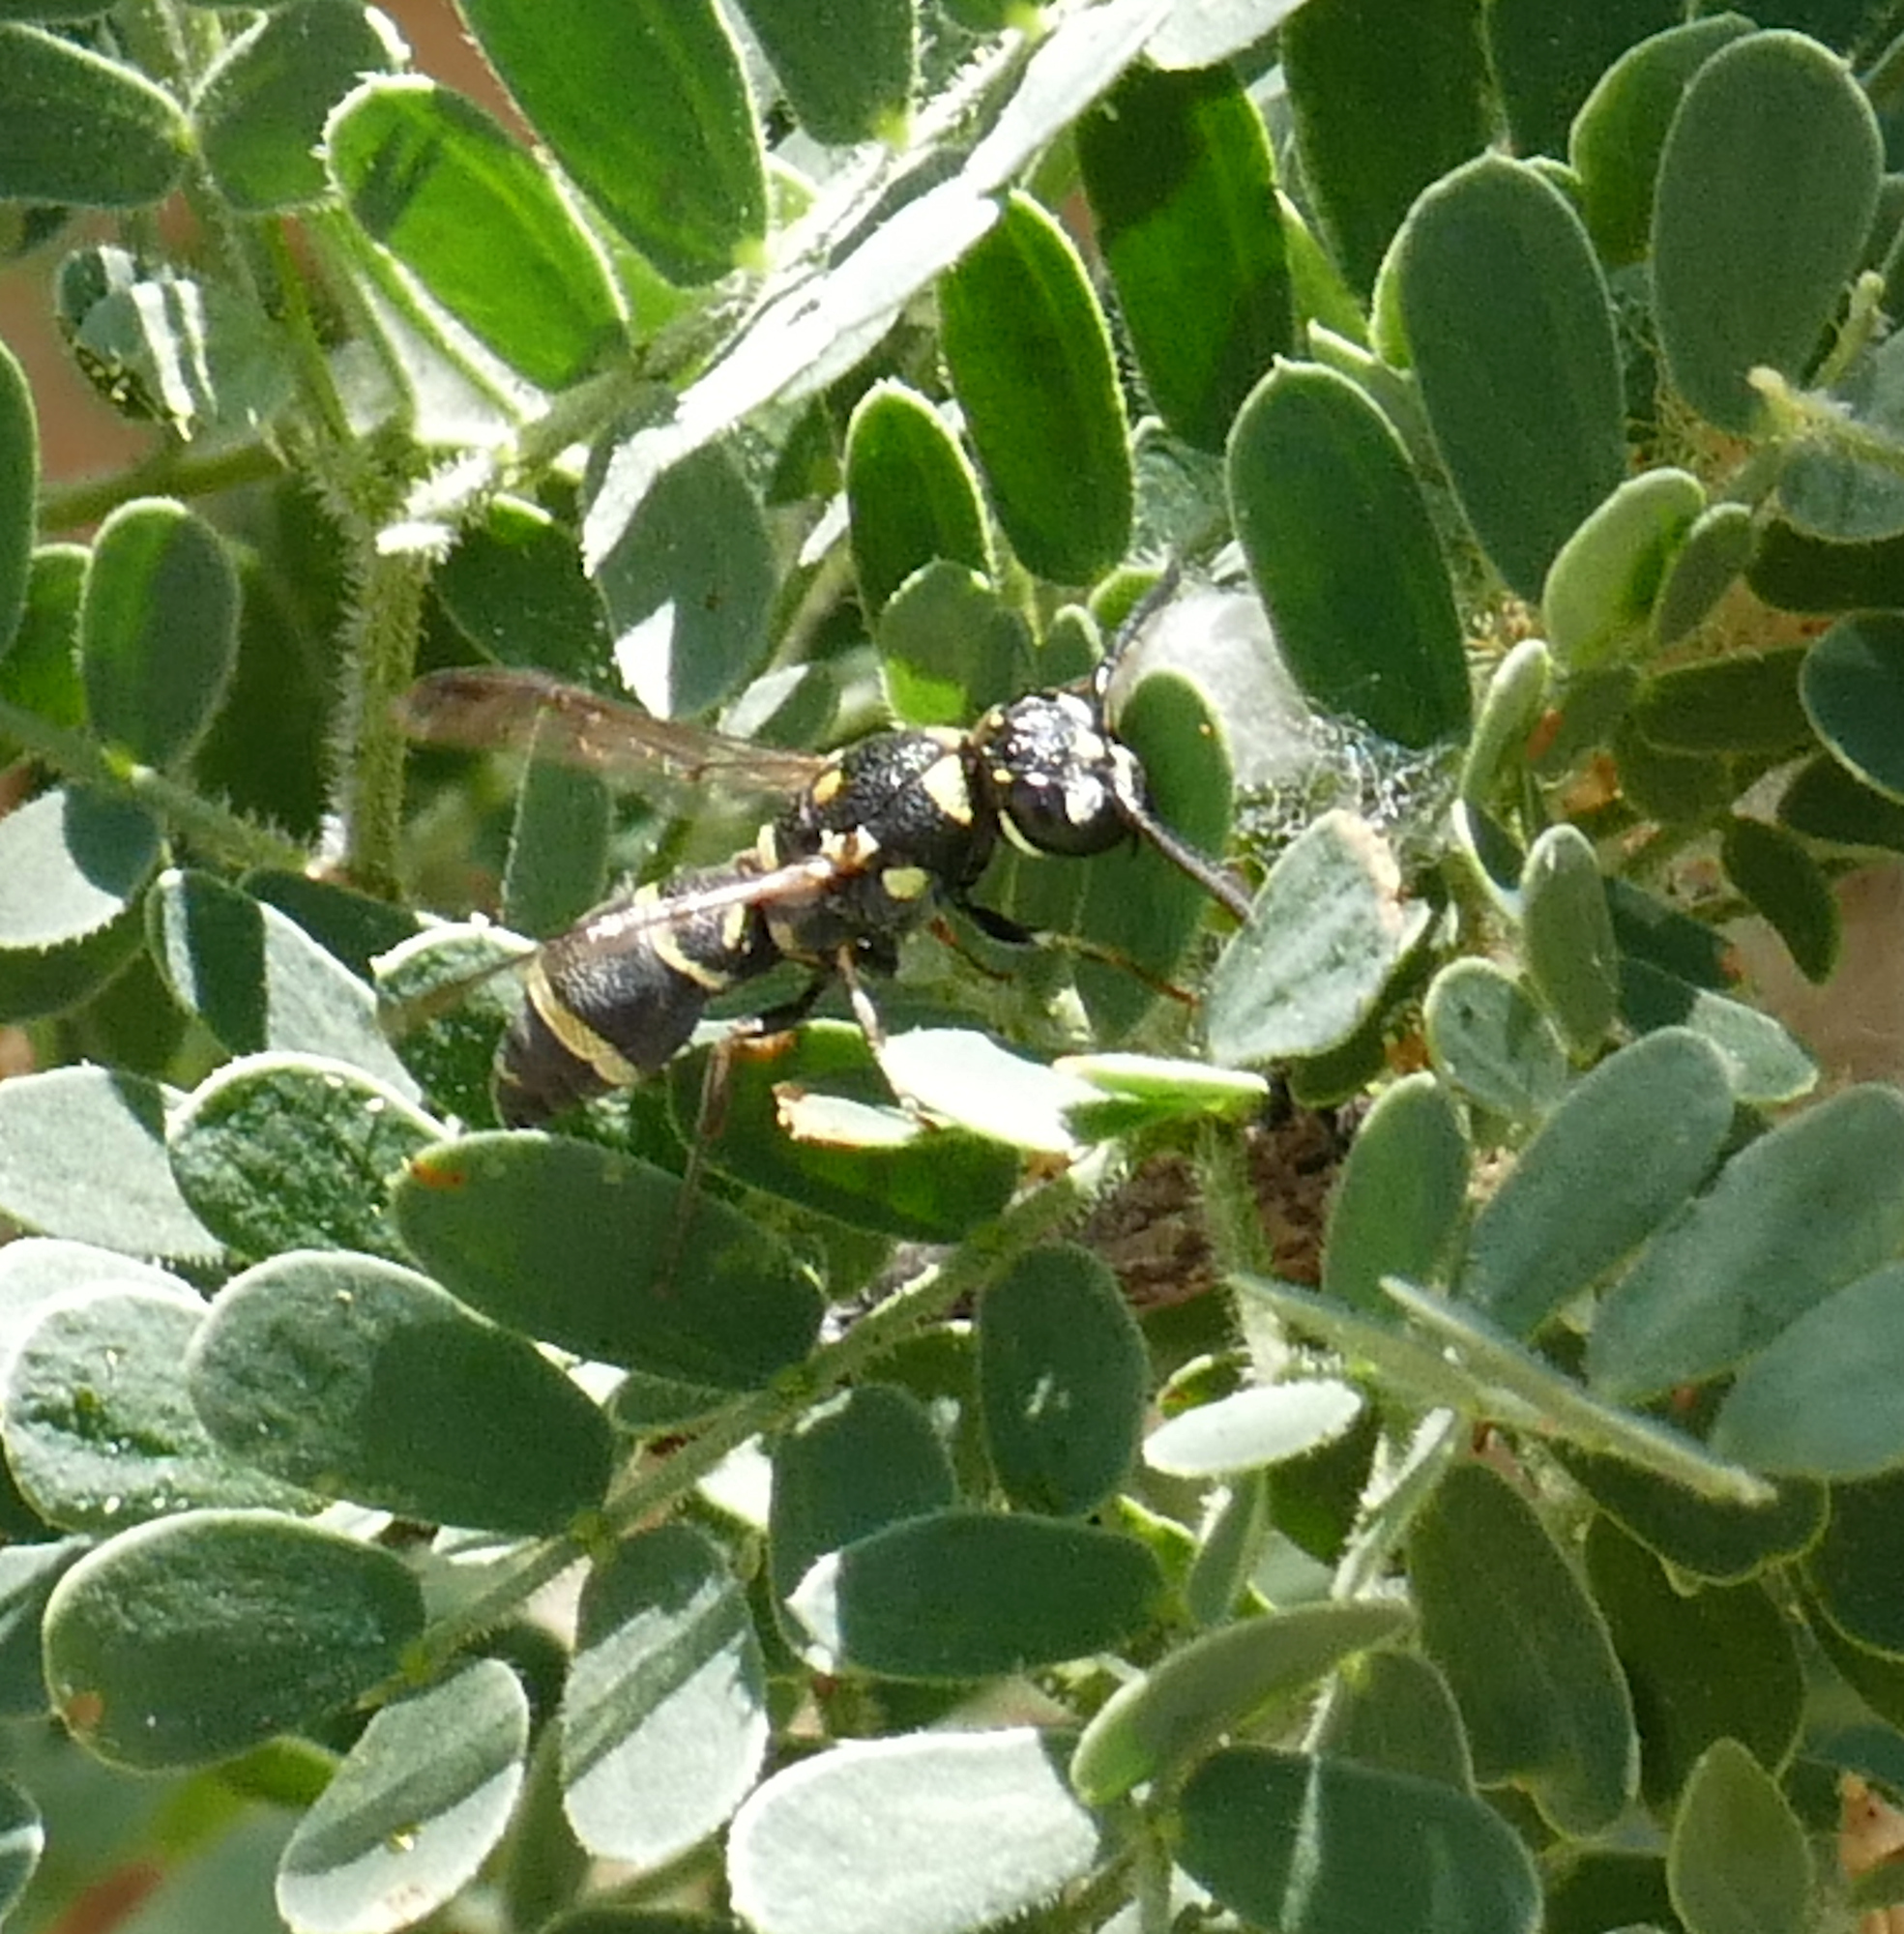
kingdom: Animalia
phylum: Arthropoda
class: Insecta
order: Hymenoptera
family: Eumenidae
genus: Parancistrocerus
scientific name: Parancistrocerus fulvipes
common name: Potter wasp
